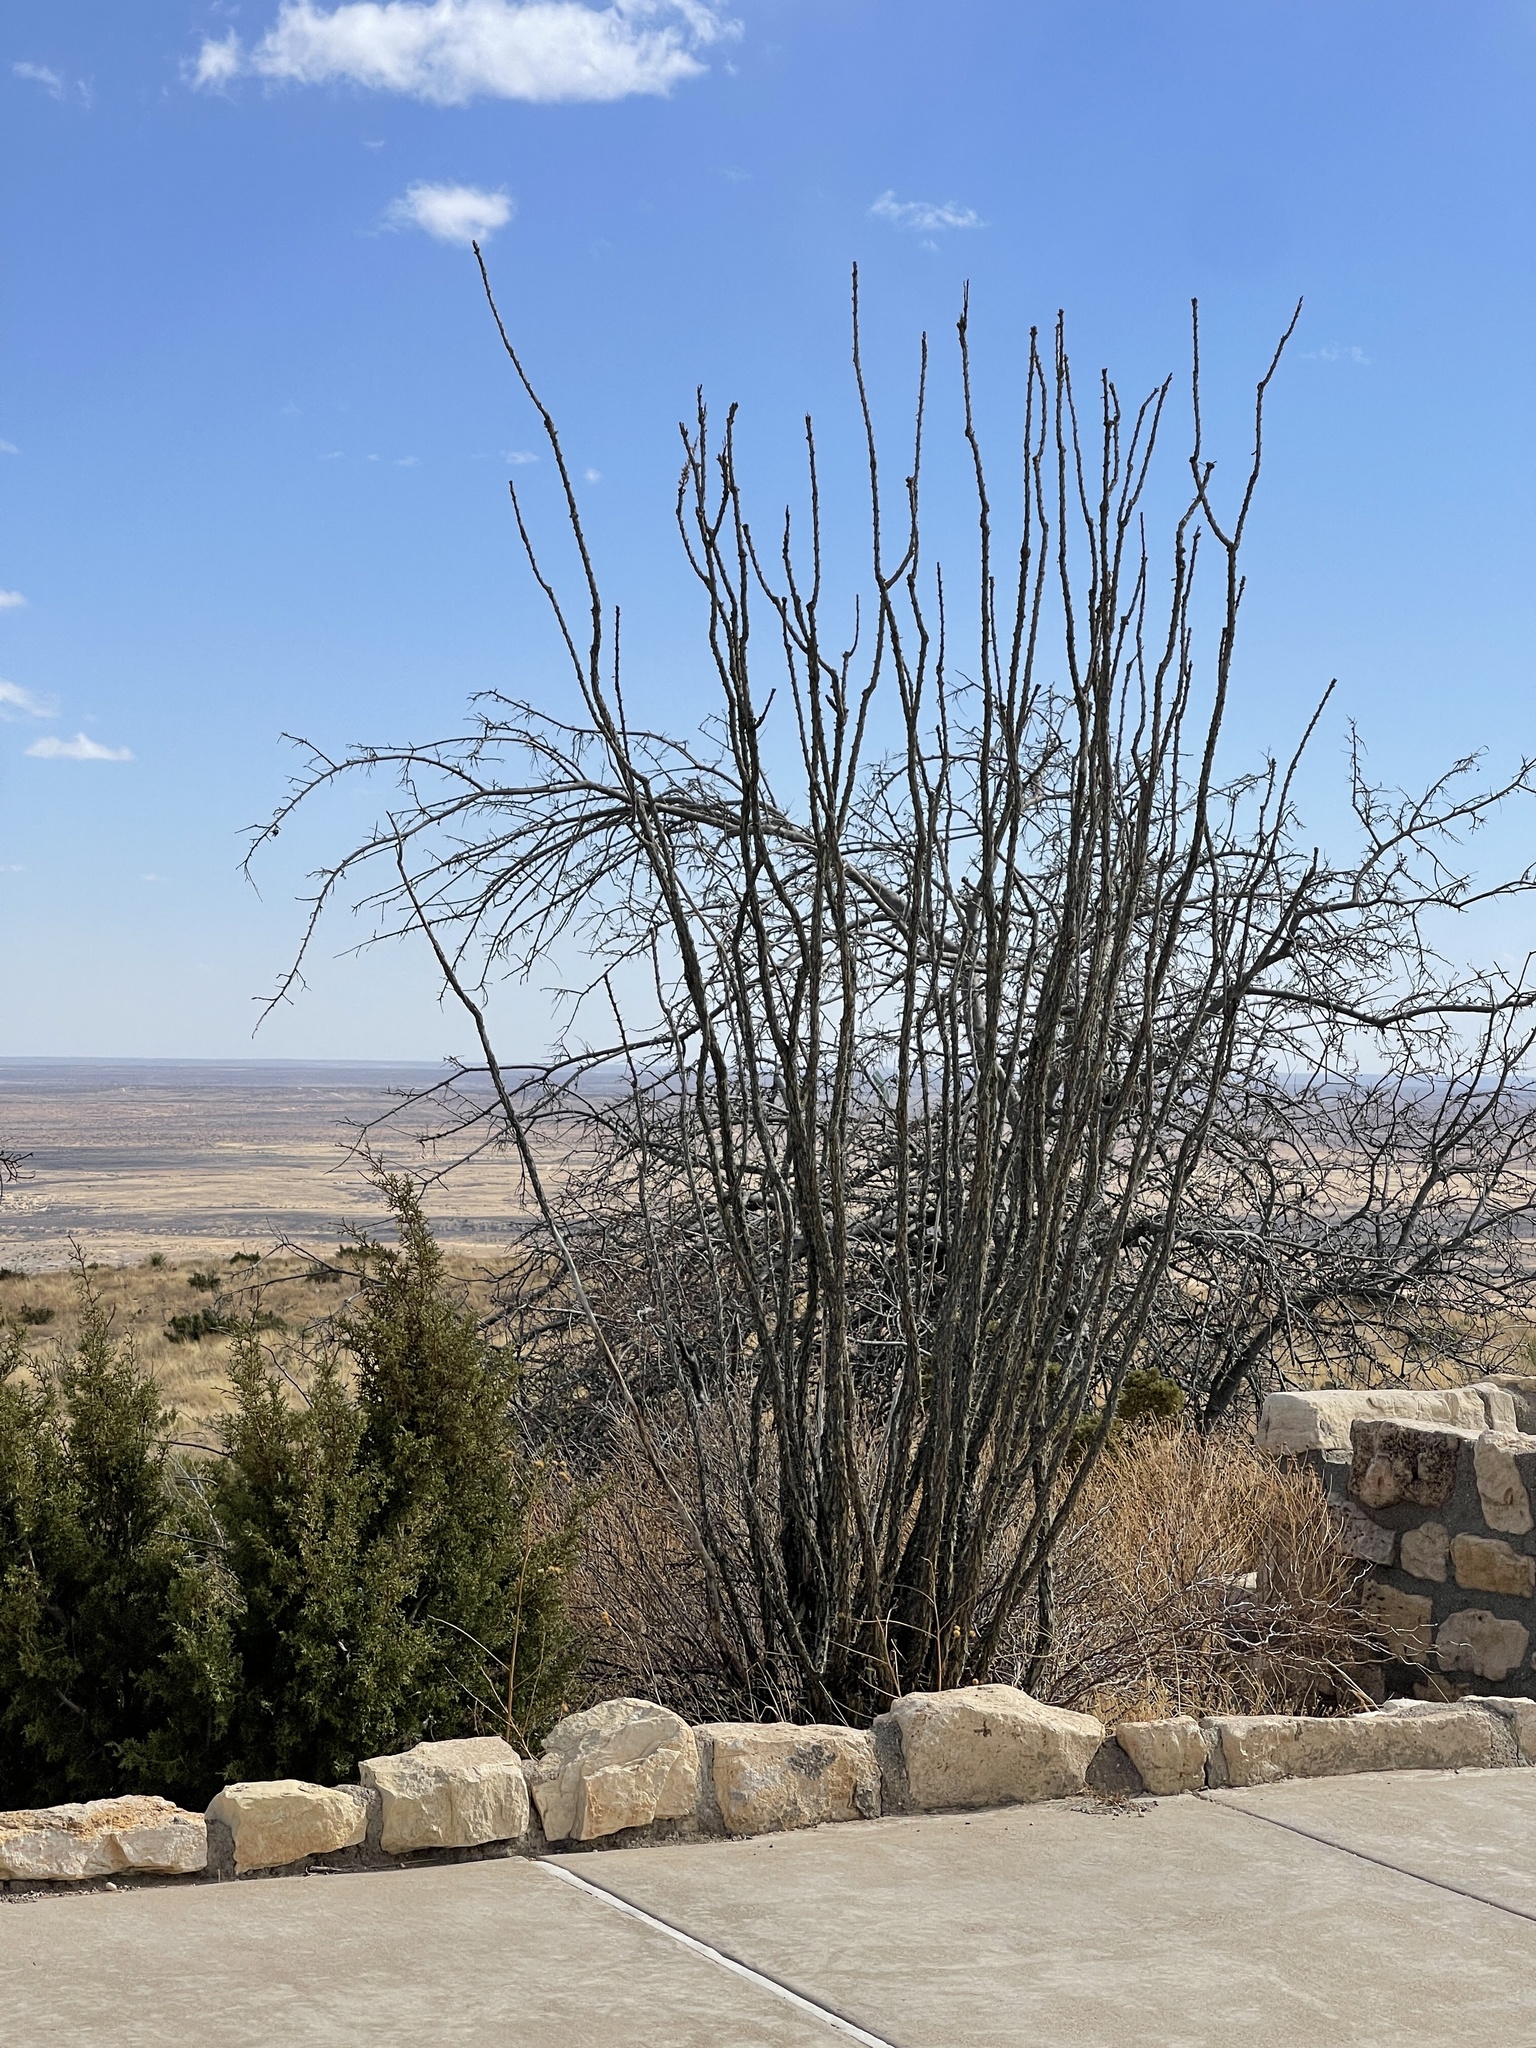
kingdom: Plantae
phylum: Tracheophyta
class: Magnoliopsida
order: Ericales
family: Fouquieriaceae
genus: Fouquieria
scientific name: Fouquieria splendens
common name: Vine-cactus
